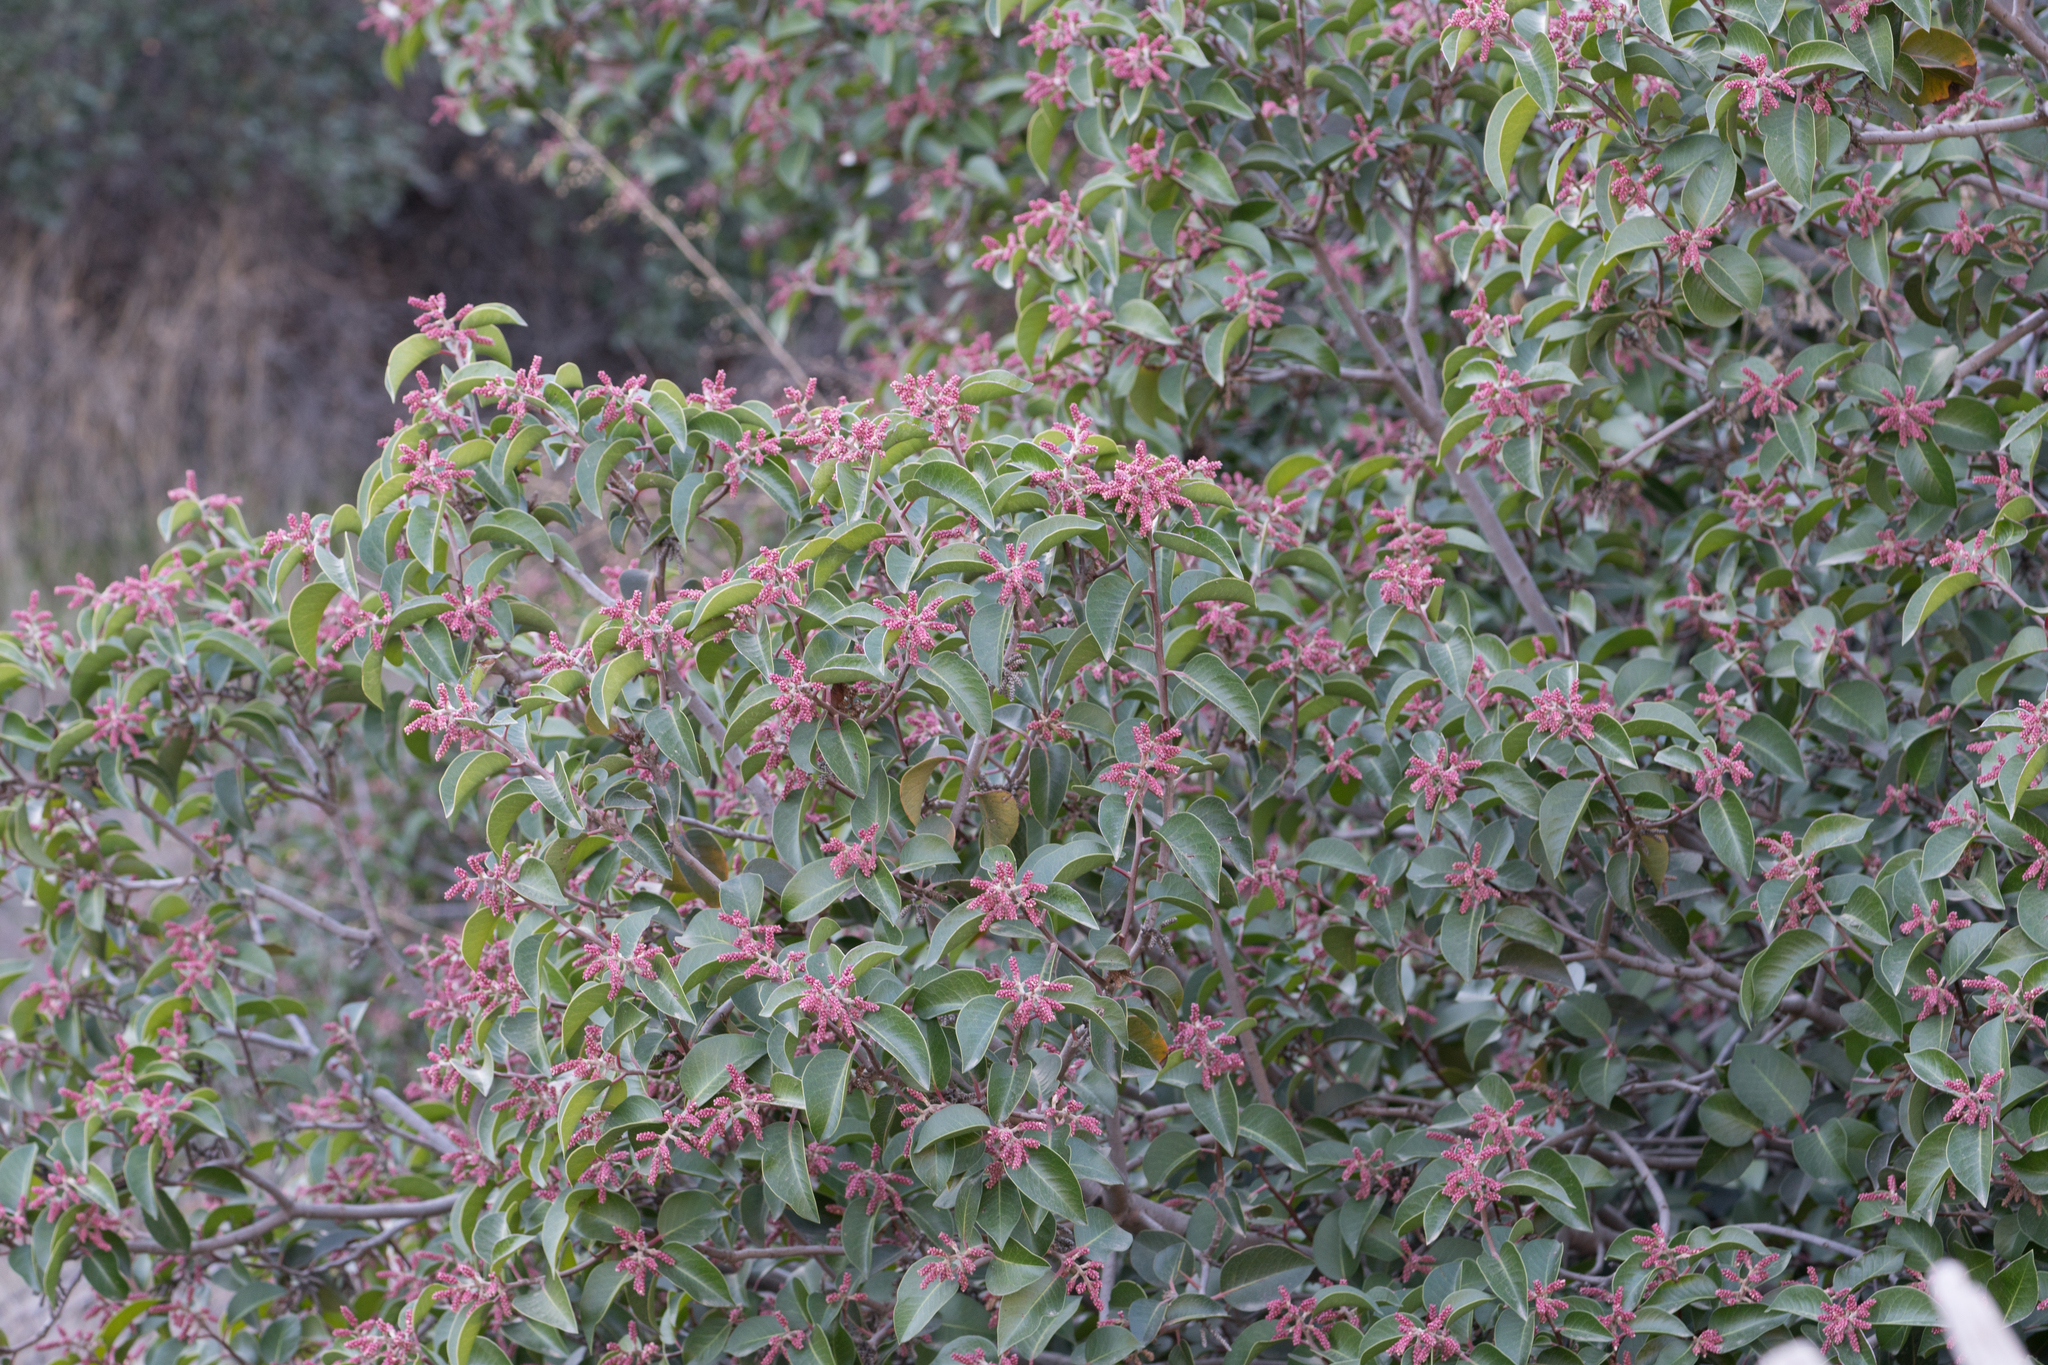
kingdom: Plantae
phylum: Tracheophyta
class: Magnoliopsida
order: Sapindales
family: Anacardiaceae
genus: Rhus
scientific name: Rhus ovata
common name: Sugar sumac
